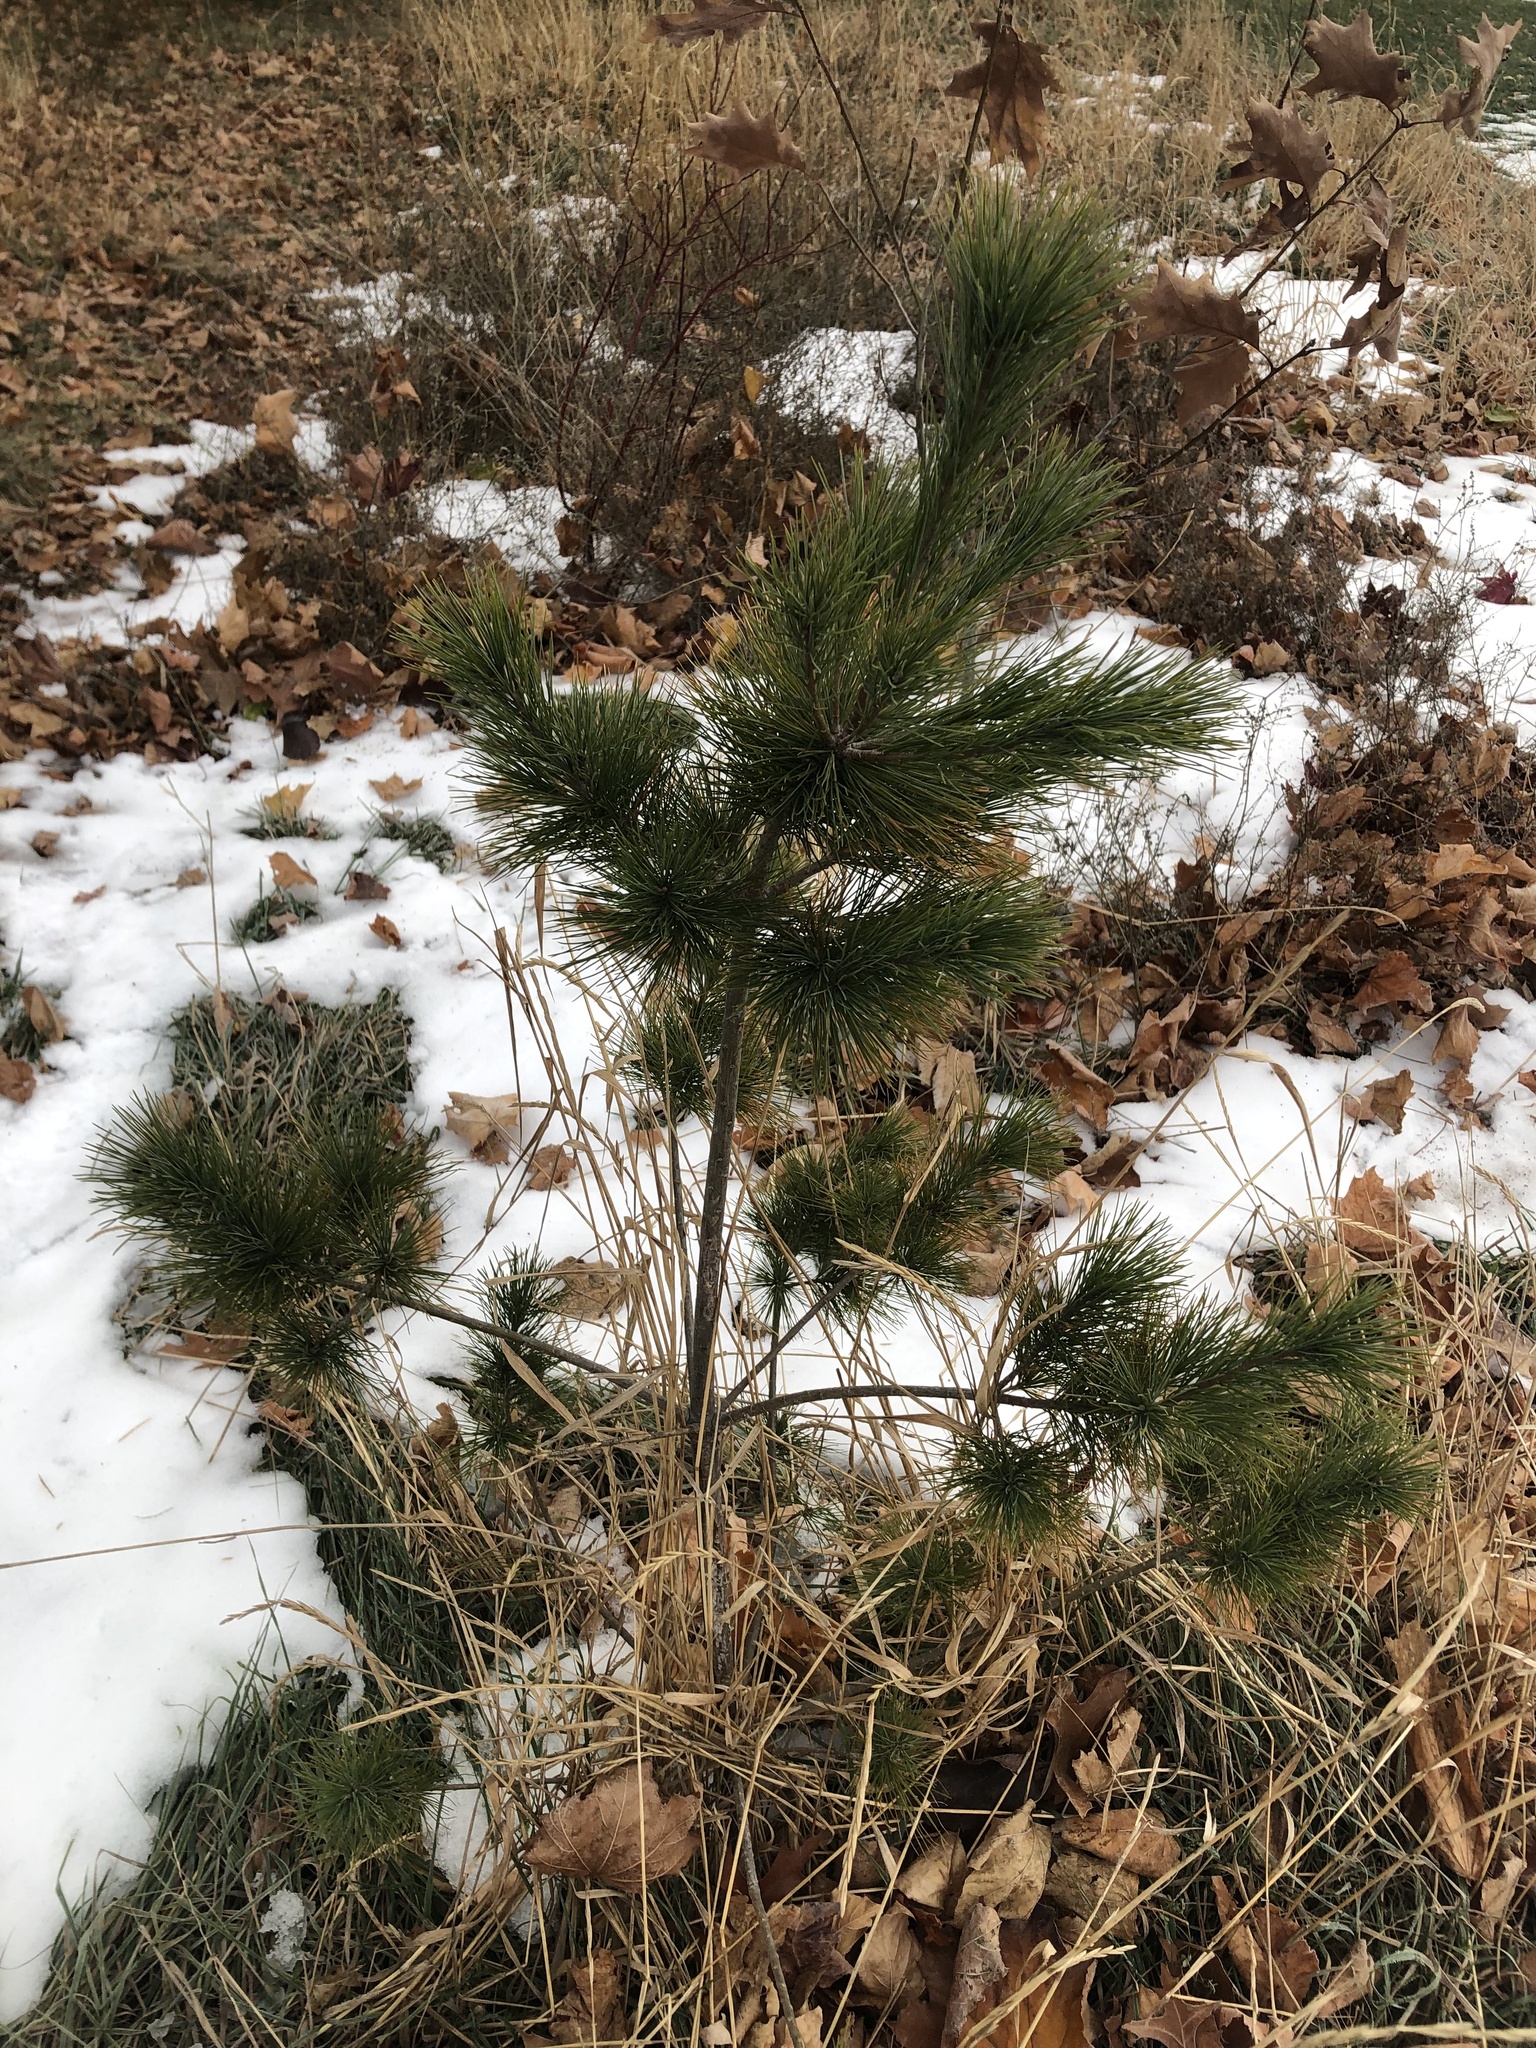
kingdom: Plantae
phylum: Tracheophyta
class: Pinopsida
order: Pinales
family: Pinaceae
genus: Pinus
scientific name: Pinus strobus
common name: Weymouth pine
